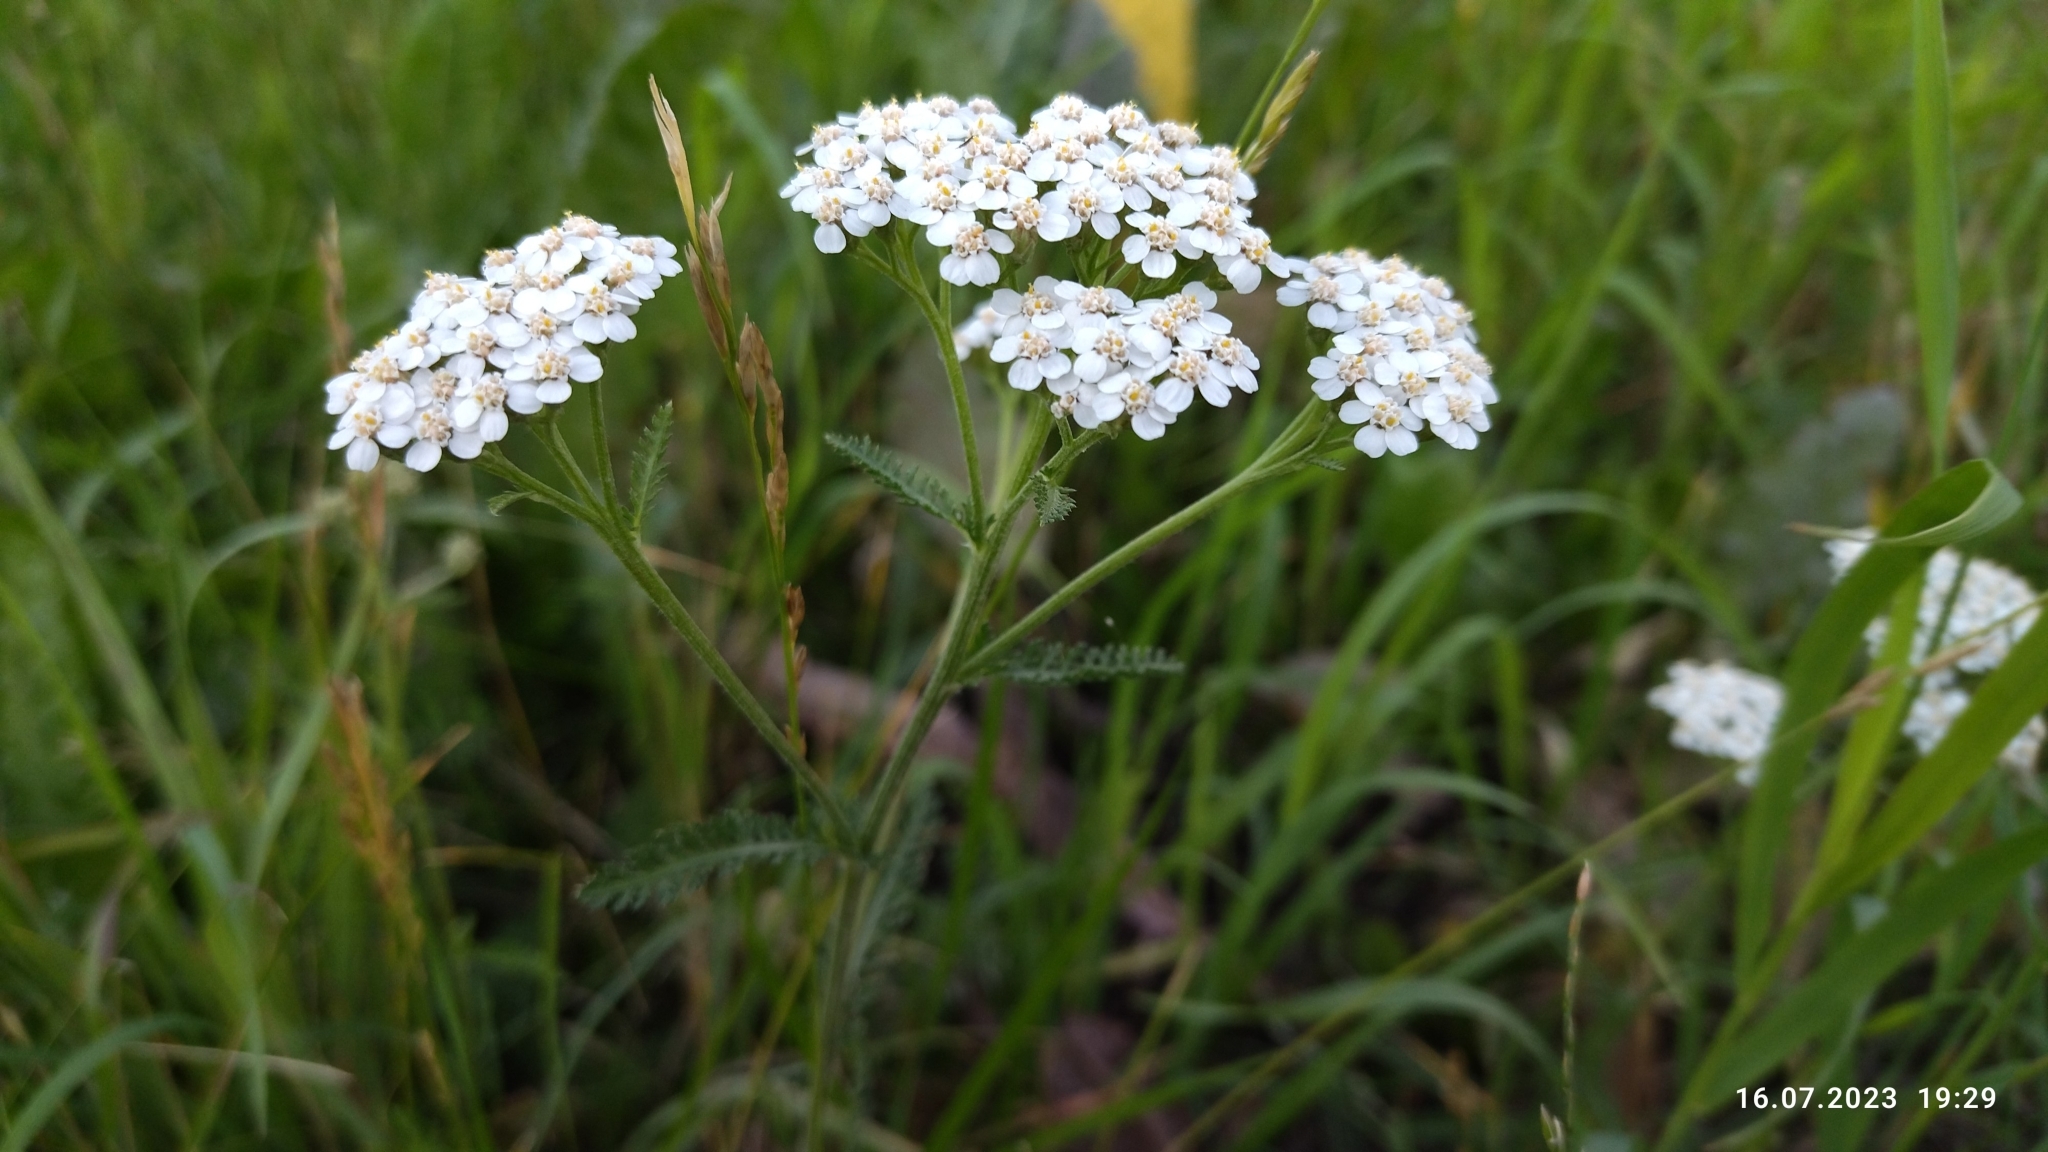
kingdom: Plantae
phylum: Tracheophyta
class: Magnoliopsida
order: Asterales
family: Asteraceae
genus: Achillea
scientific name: Achillea millefolium
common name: Yarrow
